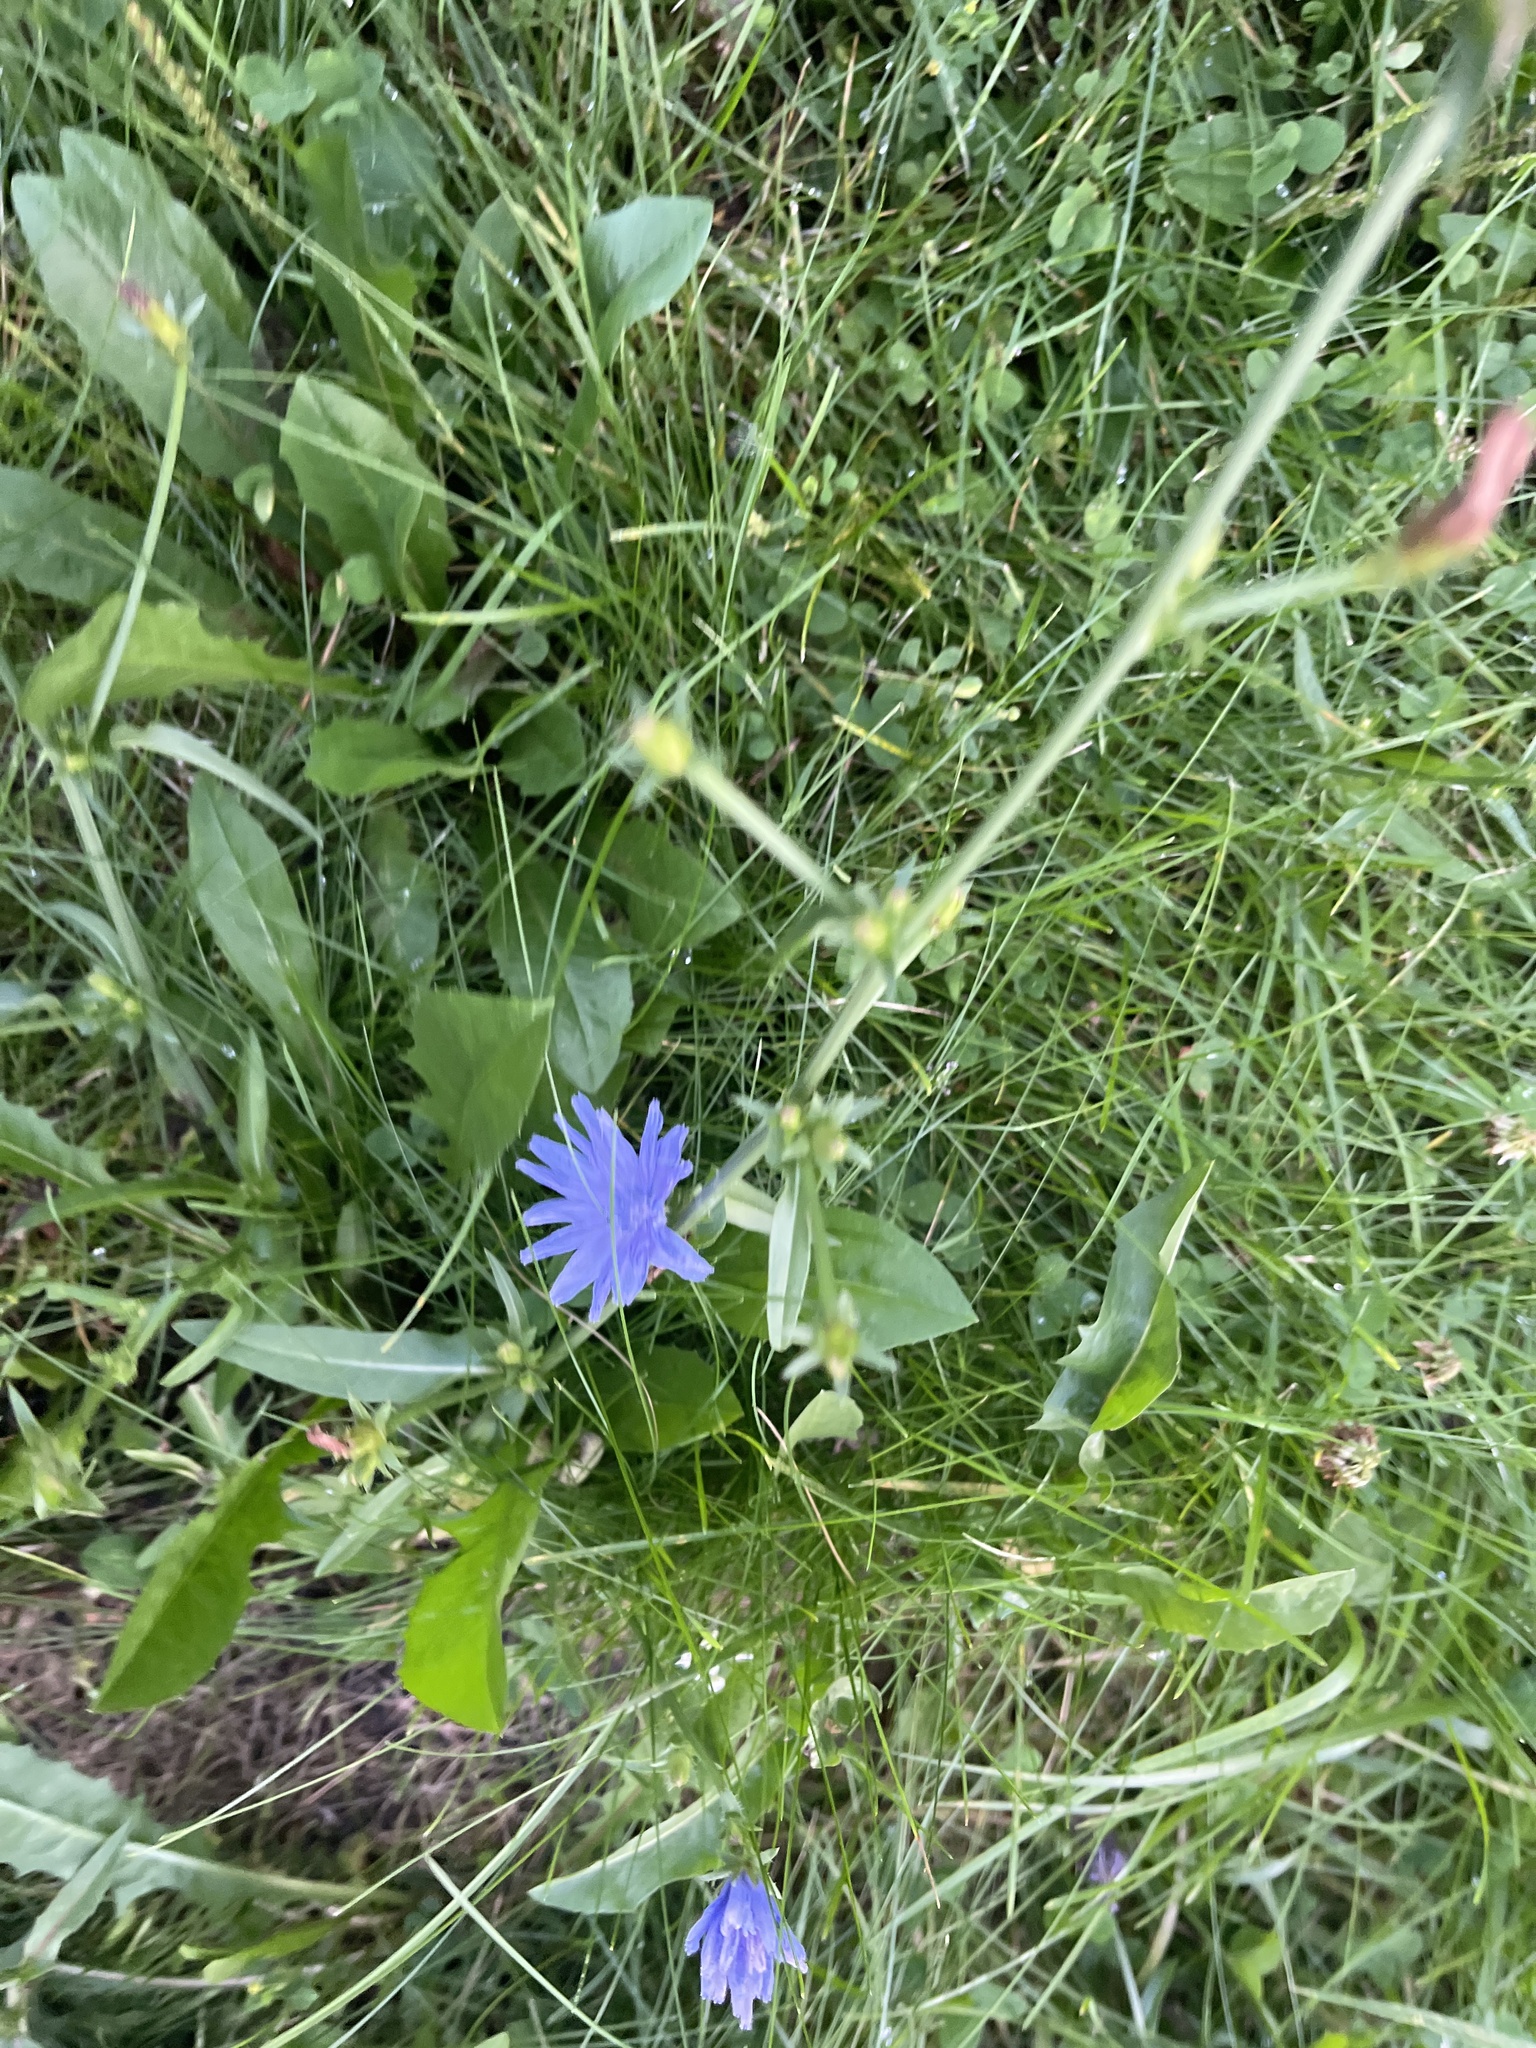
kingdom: Plantae
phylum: Tracheophyta
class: Magnoliopsida
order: Asterales
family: Asteraceae
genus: Cichorium
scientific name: Cichorium intybus
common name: Chicory
